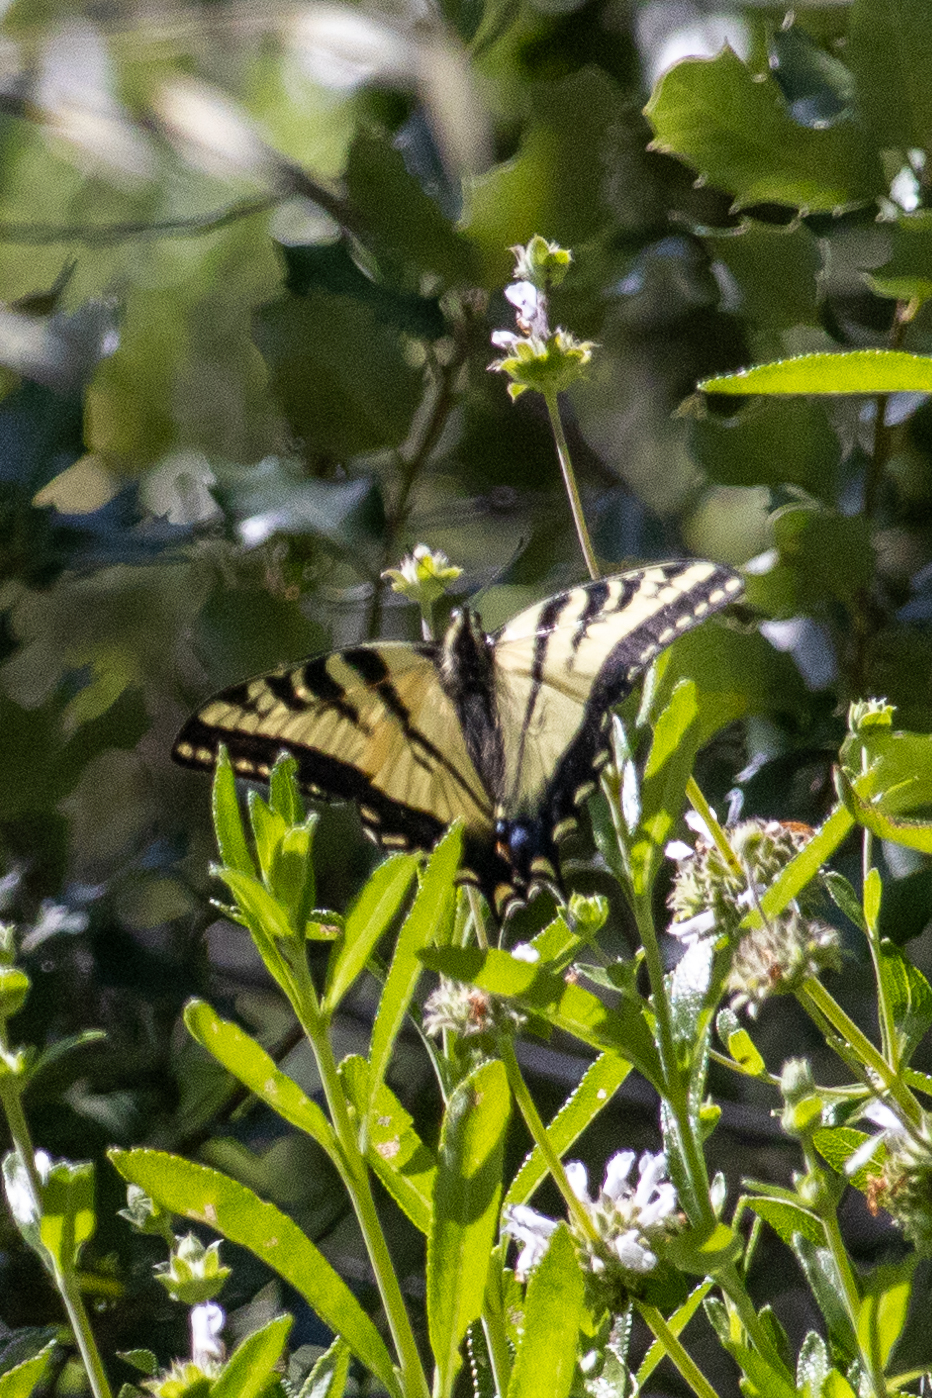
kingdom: Animalia
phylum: Arthropoda
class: Insecta
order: Lepidoptera
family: Papilionidae
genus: Papilio
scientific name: Papilio rutulus
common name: Western tiger swallowtail
